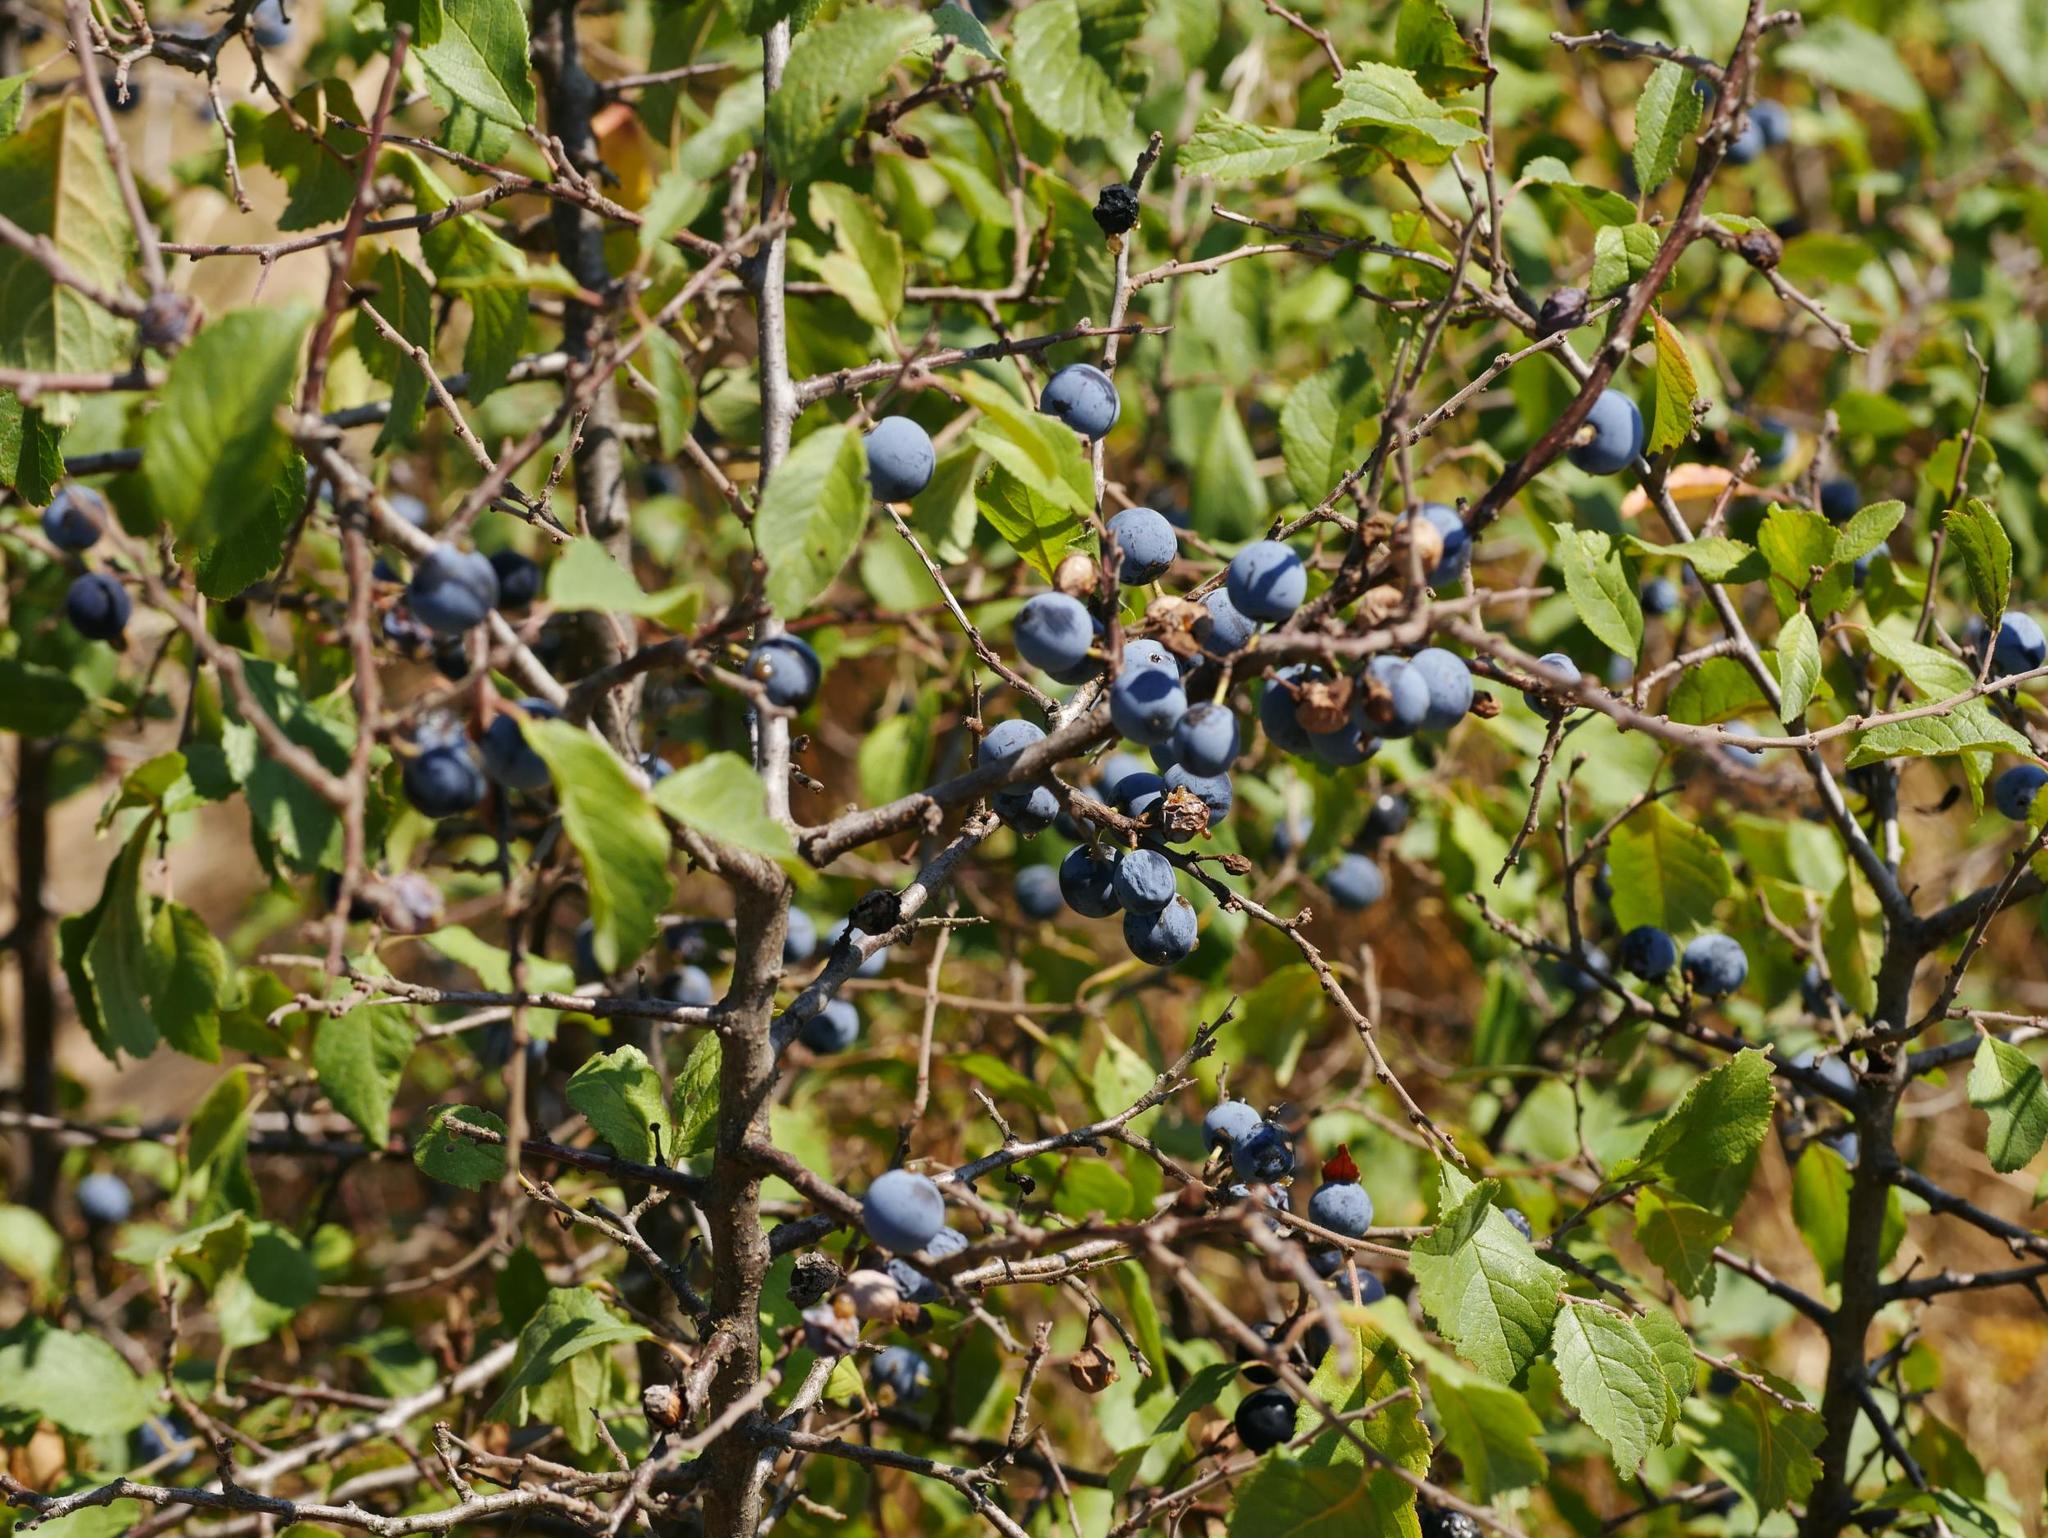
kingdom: Plantae
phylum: Tracheophyta
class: Magnoliopsida
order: Rosales
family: Rosaceae
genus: Prunus
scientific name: Prunus spinosa
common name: Blackthorn
